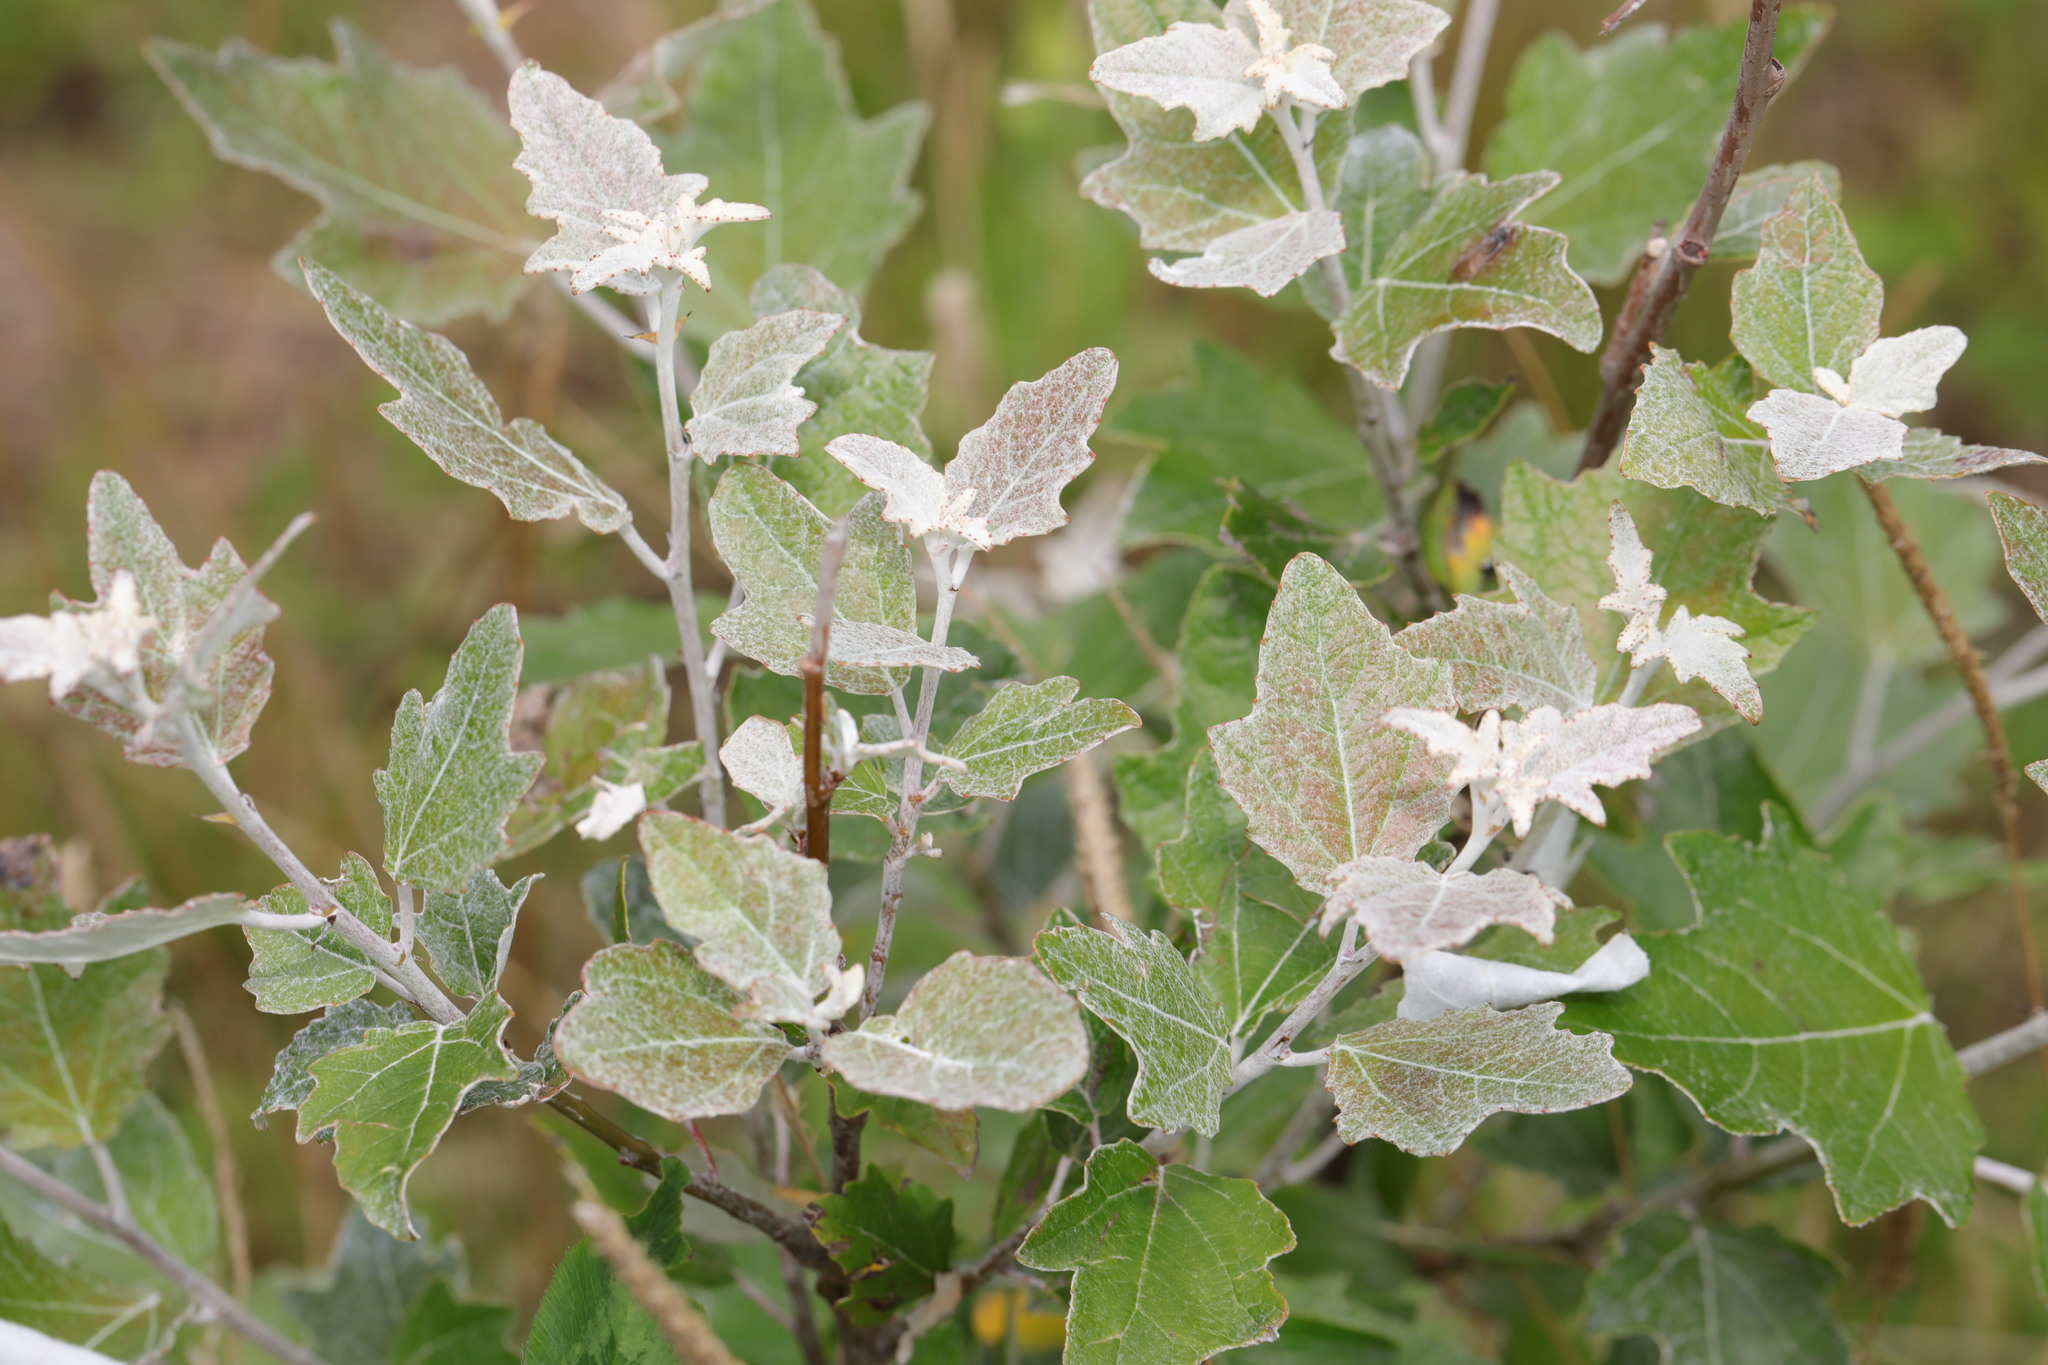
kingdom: Plantae
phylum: Tracheophyta
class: Magnoliopsida
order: Malpighiales
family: Salicaceae
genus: Populus
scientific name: Populus alba
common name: White poplar
